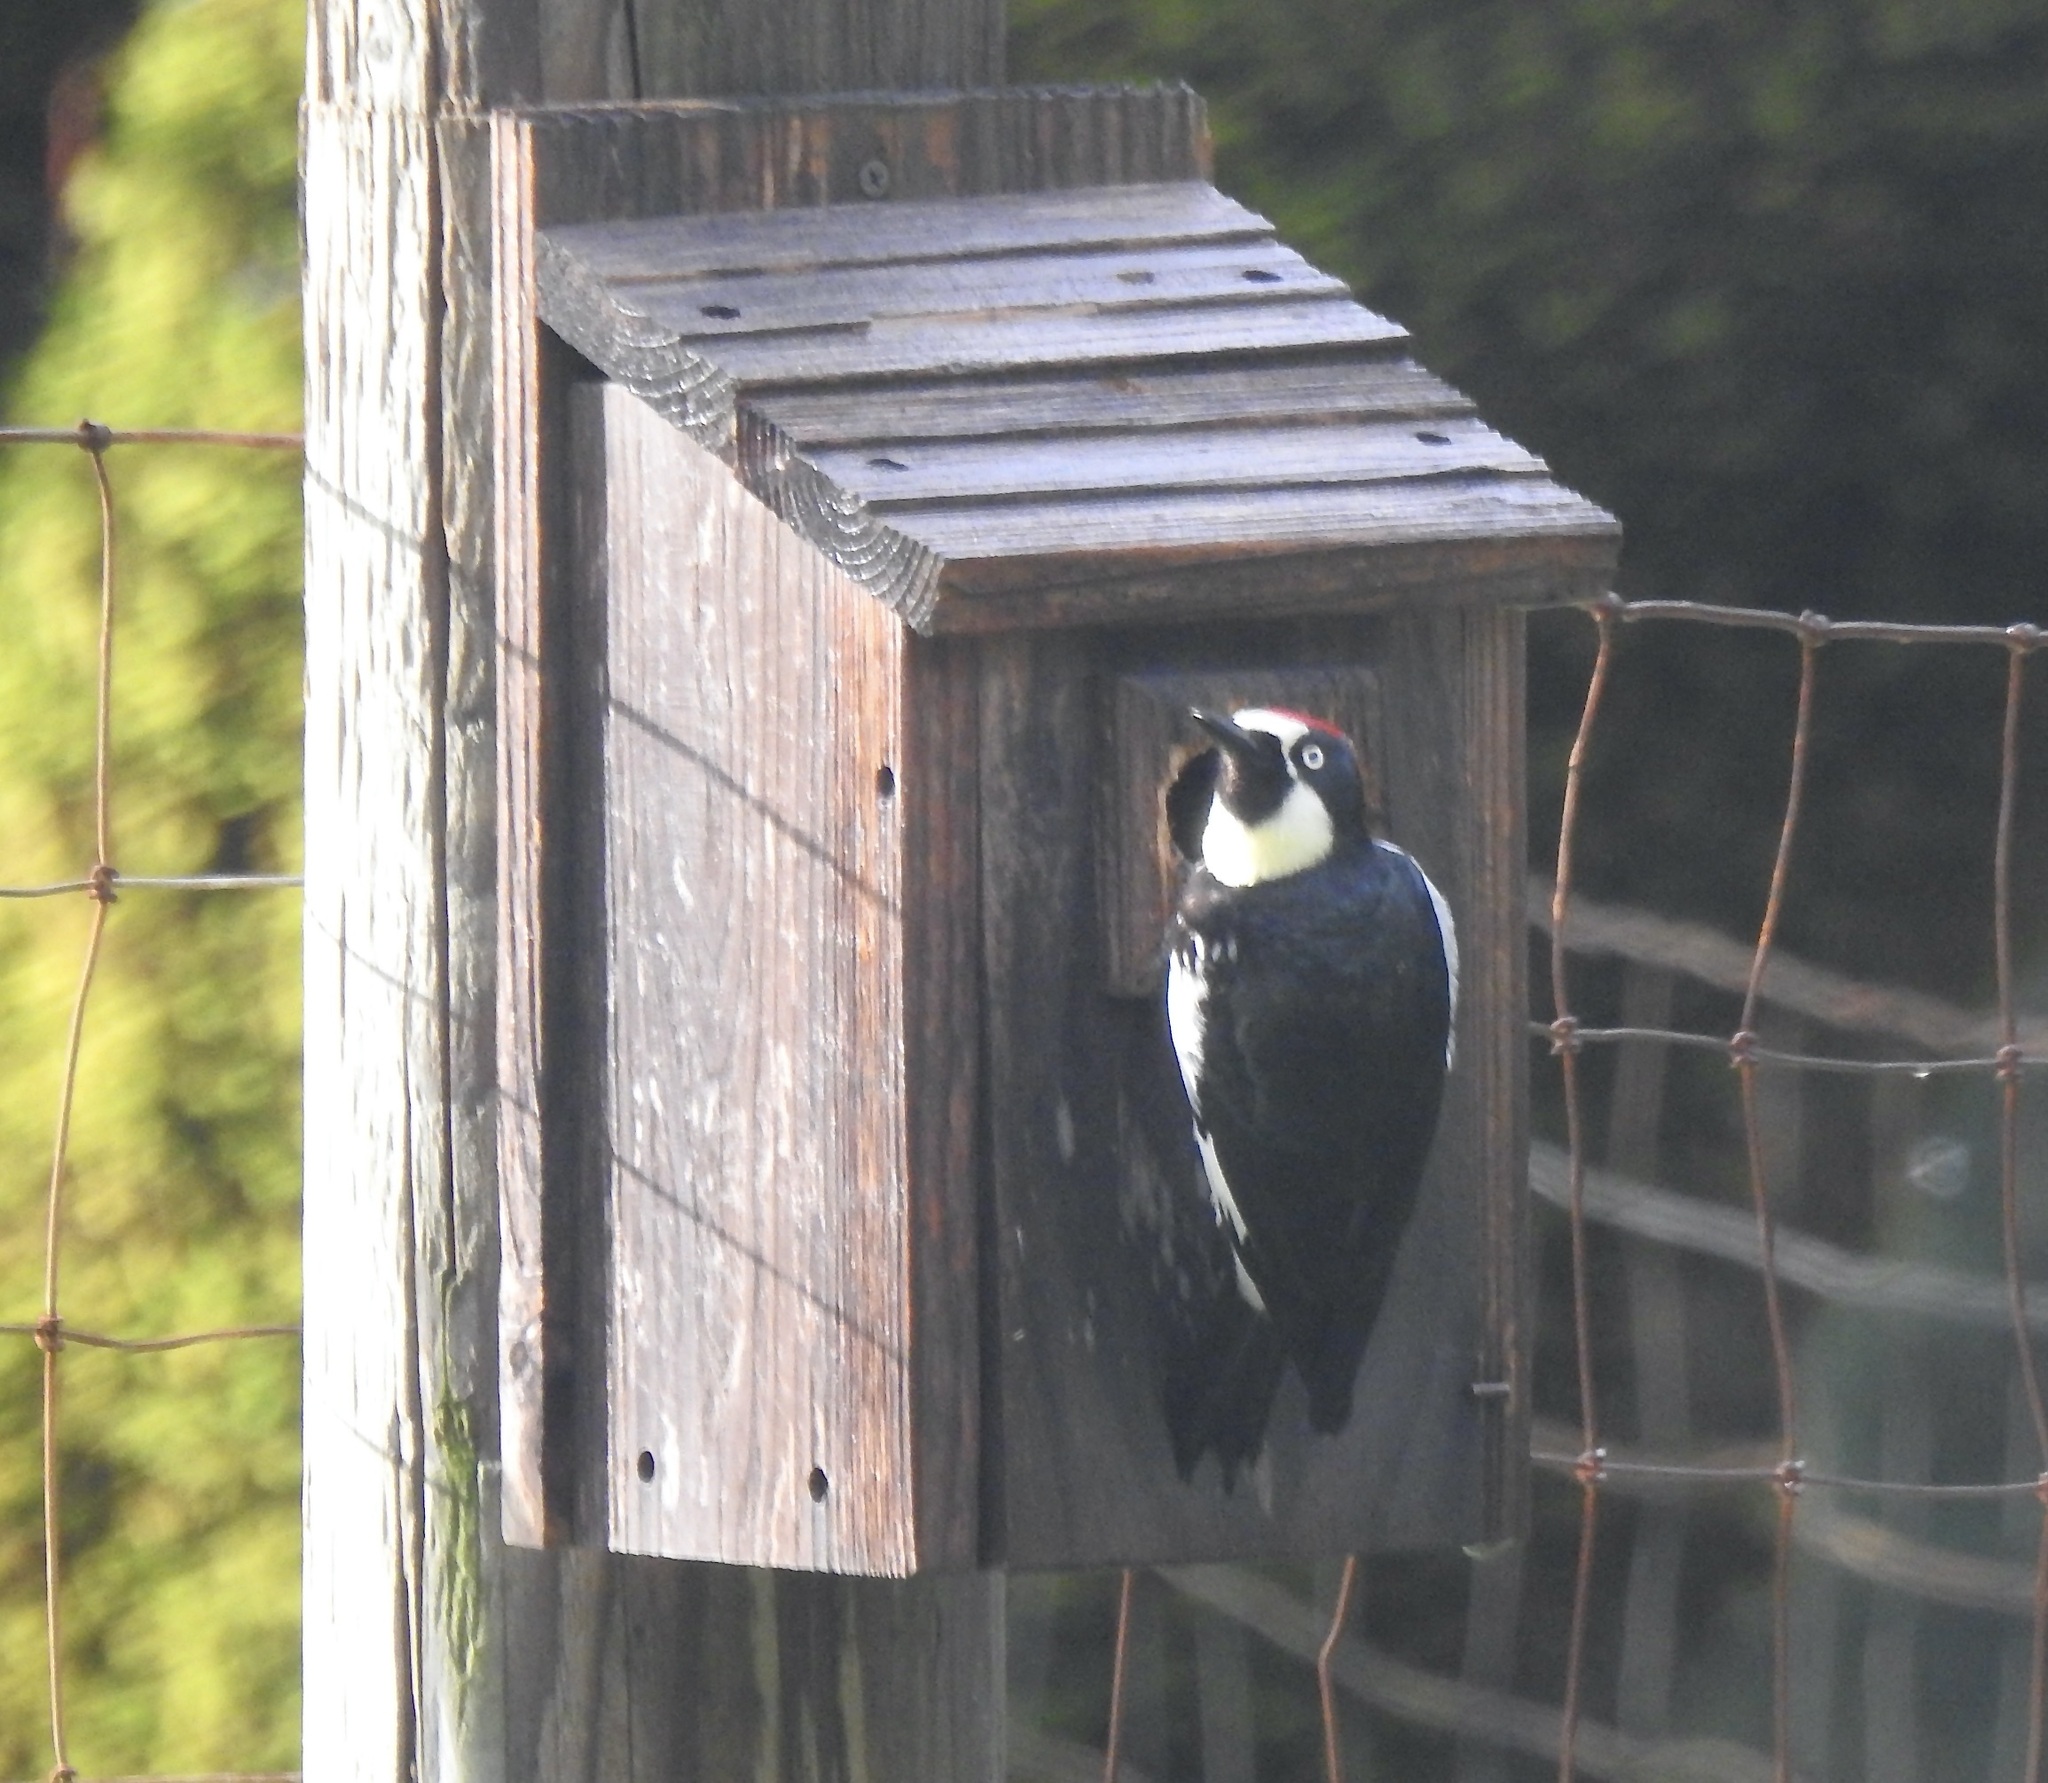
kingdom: Animalia
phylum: Chordata
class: Aves
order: Piciformes
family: Picidae
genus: Melanerpes
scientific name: Melanerpes formicivorus
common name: Acorn woodpecker
